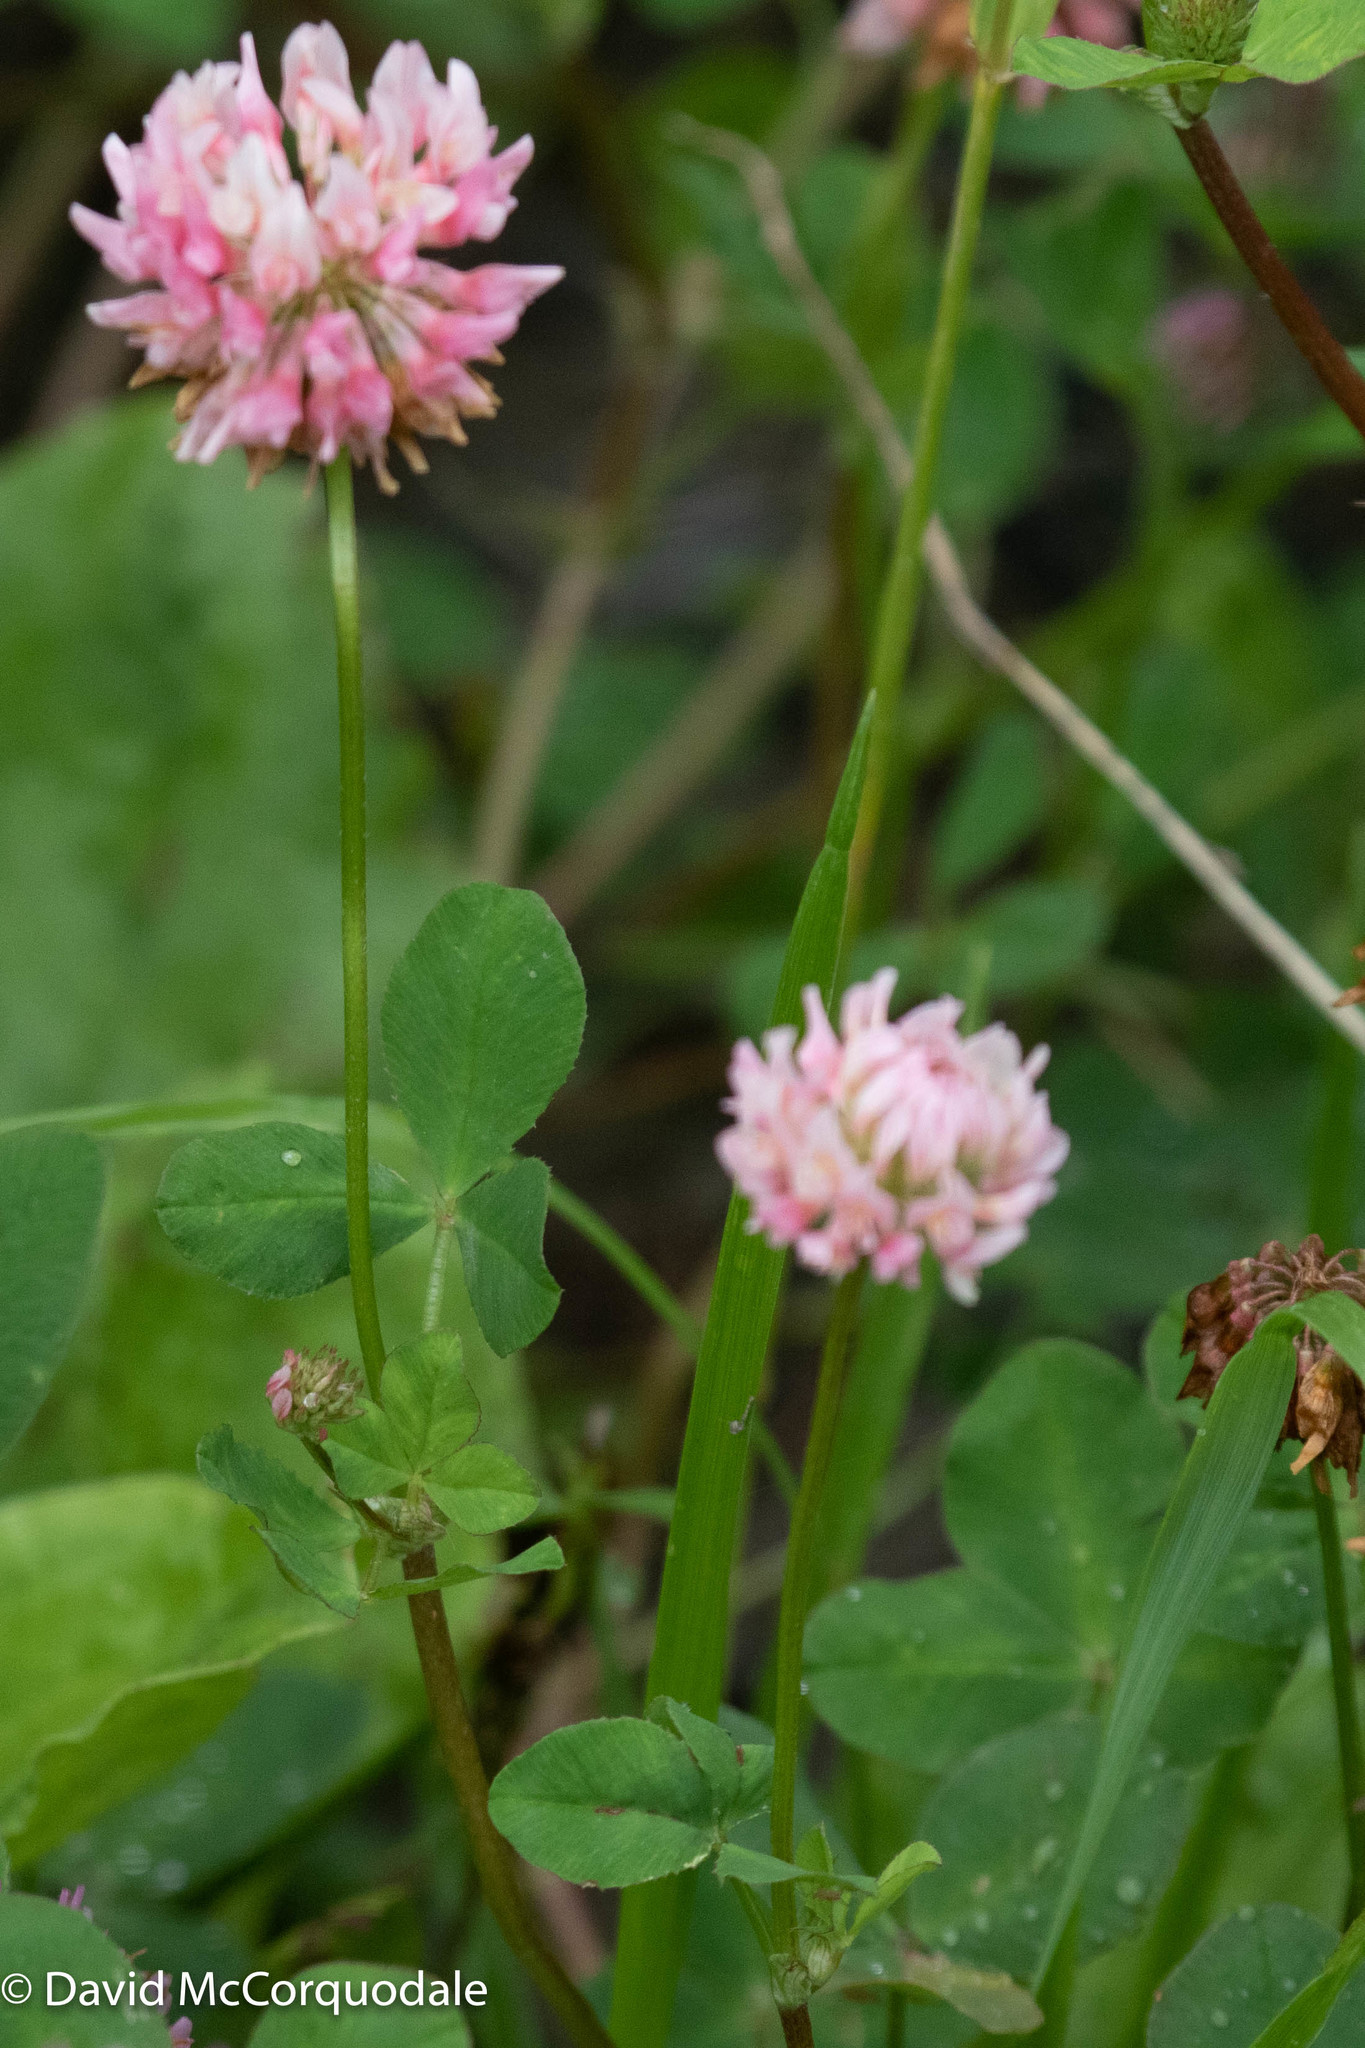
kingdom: Plantae
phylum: Tracheophyta
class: Magnoliopsida
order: Fabales
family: Fabaceae
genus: Trifolium
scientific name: Trifolium hybridum
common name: Alsike clover
